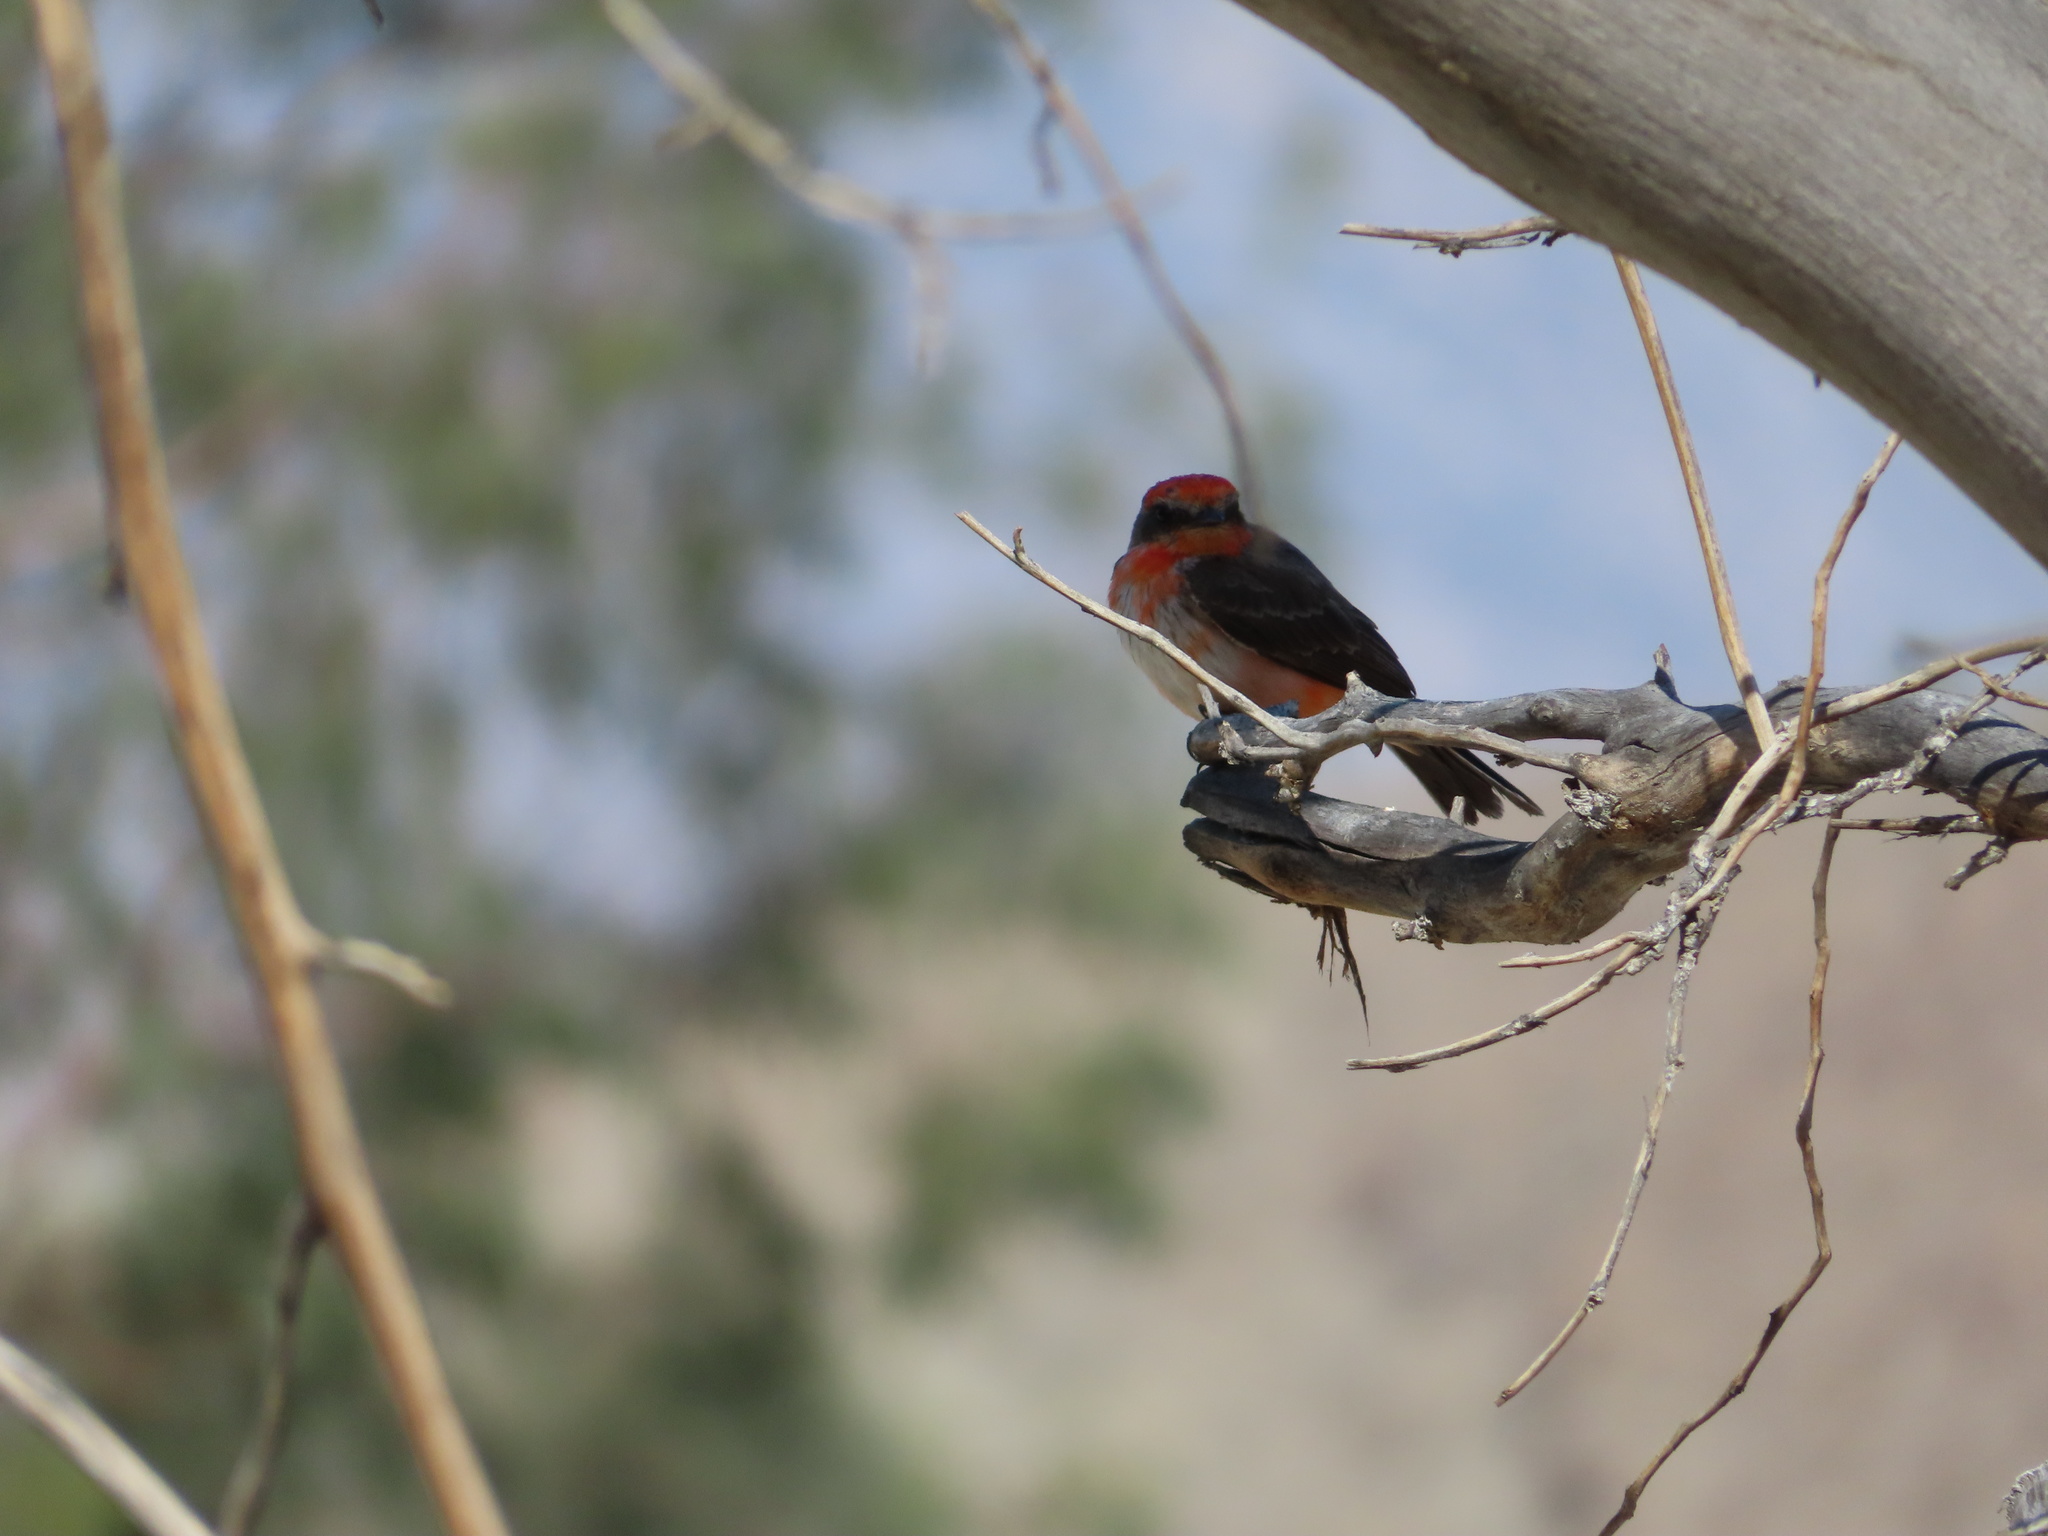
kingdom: Animalia
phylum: Chordata
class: Aves
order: Passeriformes
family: Tyrannidae
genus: Pyrocephalus
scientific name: Pyrocephalus rubinus
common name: Vermilion flycatcher
